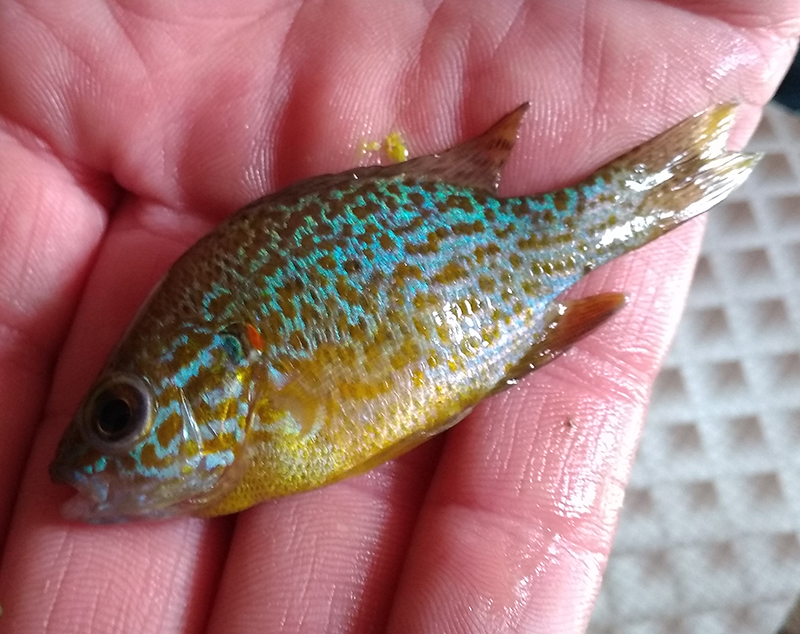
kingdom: Animalia
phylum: Chordata
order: Perciformes
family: Centrarchidae
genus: Lepomis
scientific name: Lepomis gibbosus
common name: Pumpkinseed
